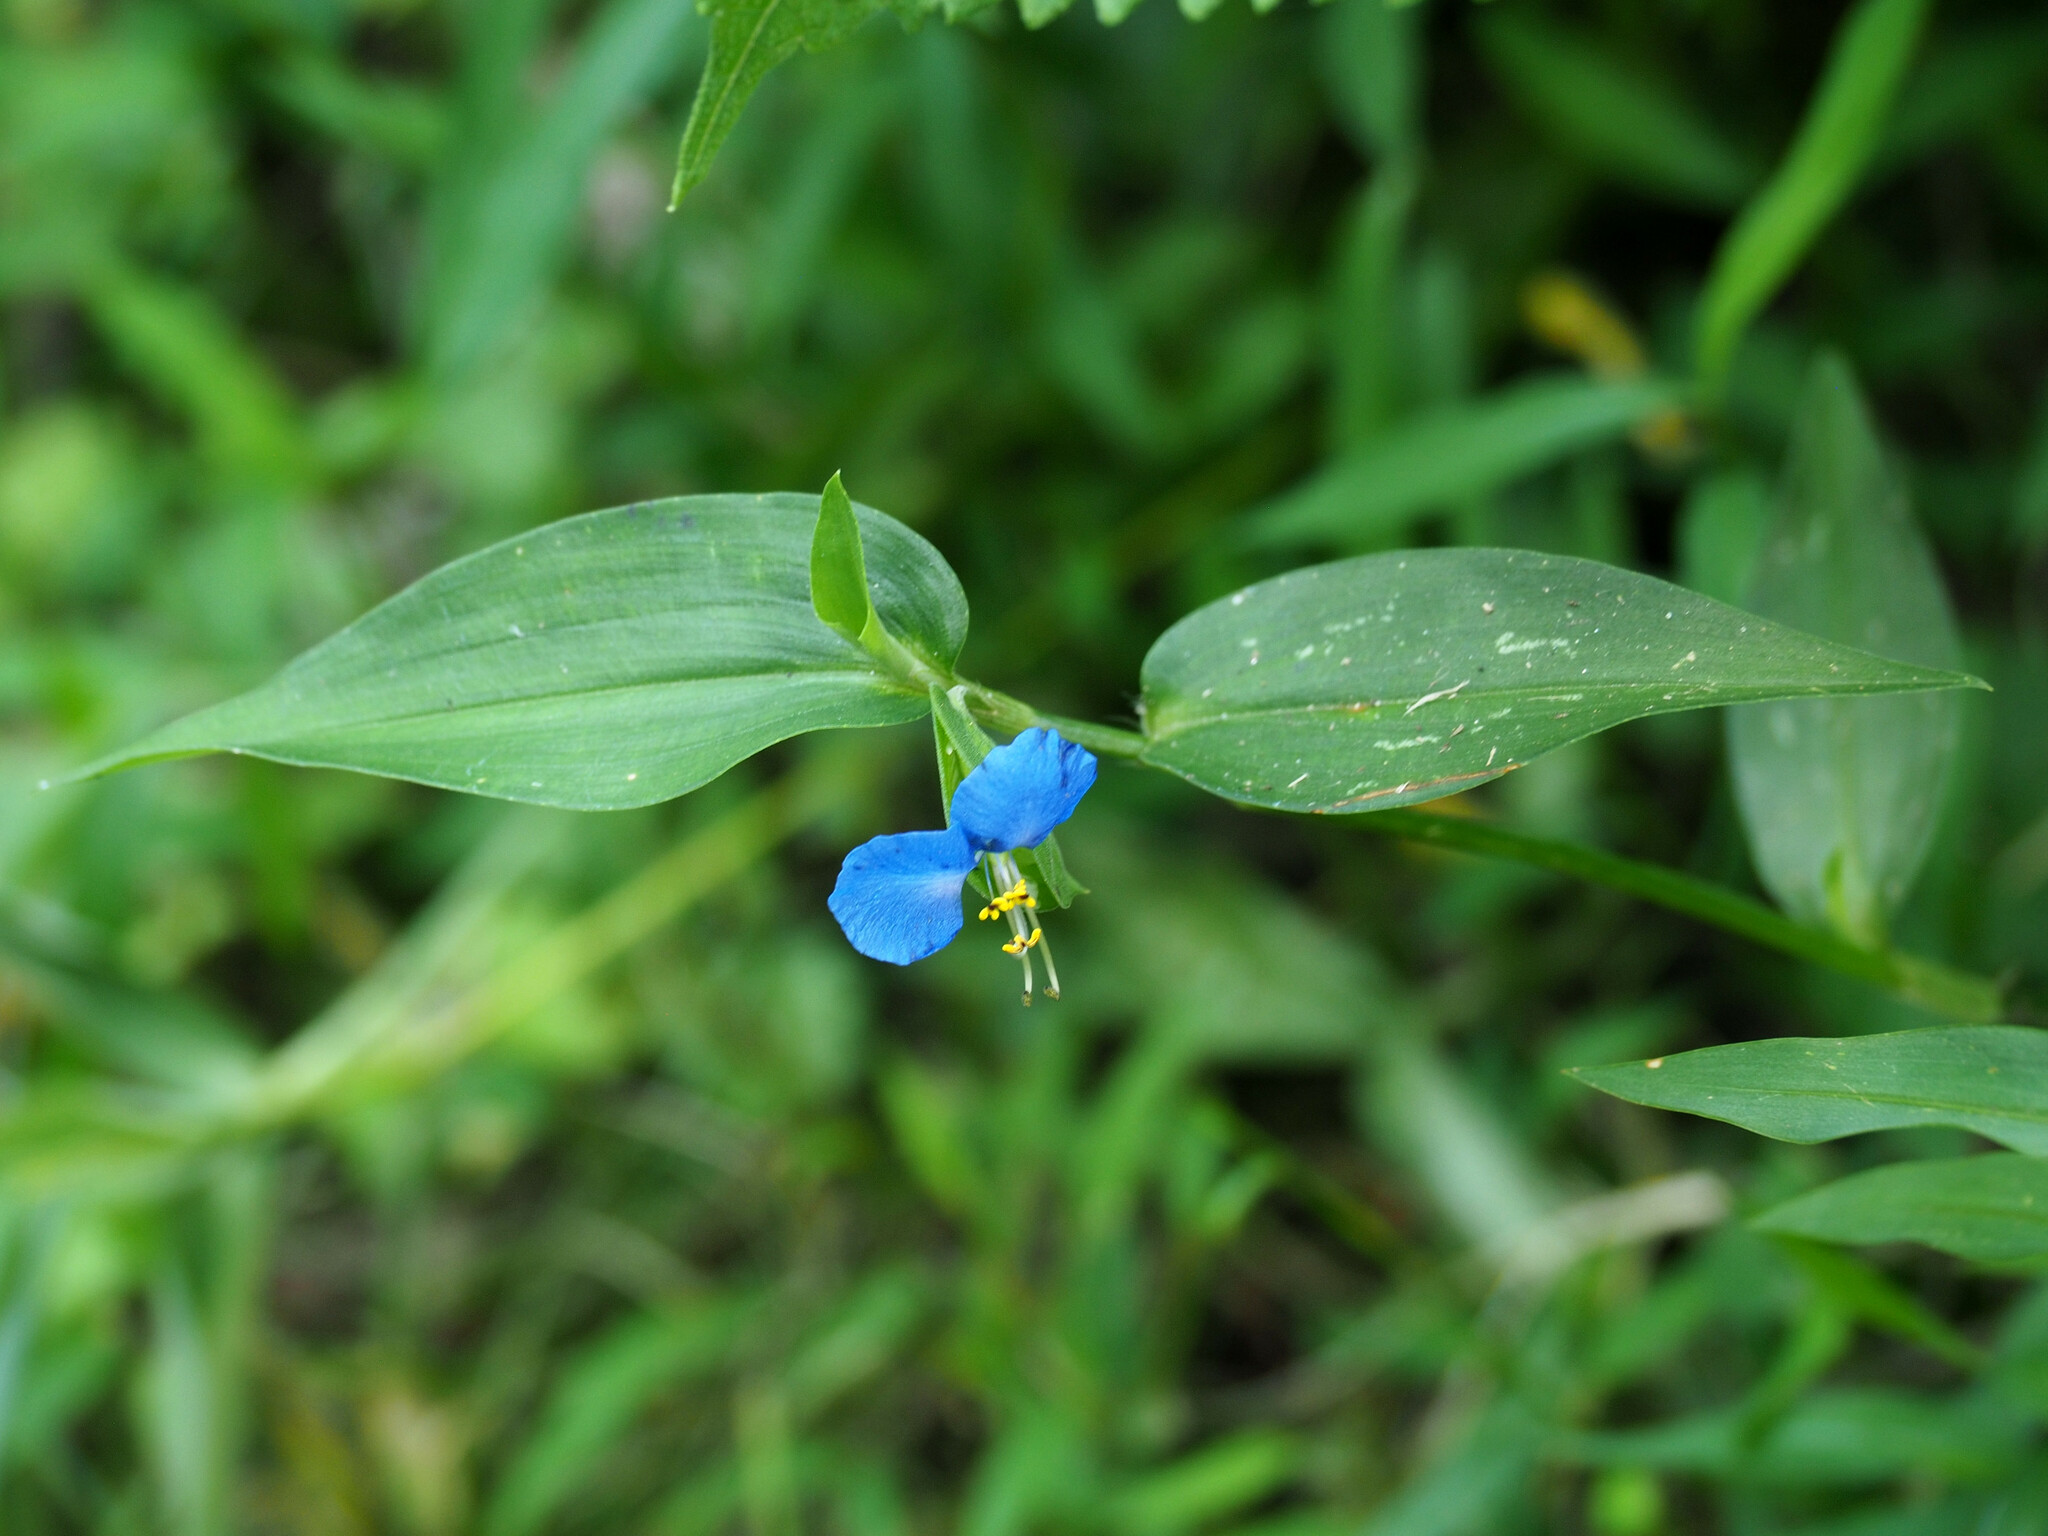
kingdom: Plantae
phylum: Tracheophyta
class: Liliopsida
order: Commelinales
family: Commelinaceae
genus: Commelina
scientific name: Commelina communis
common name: Asiatic dayflower
